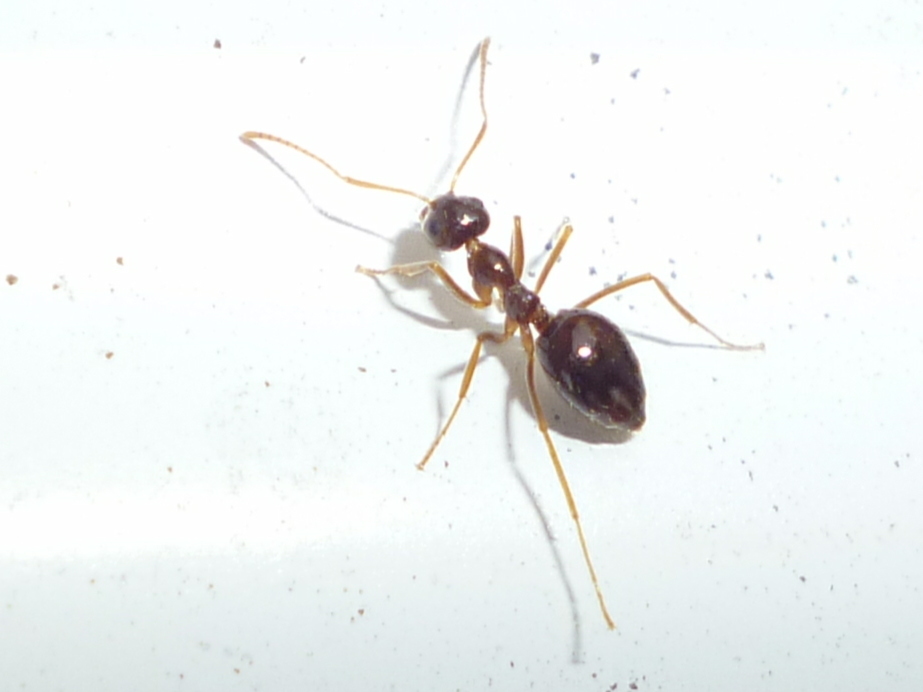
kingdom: Animalia
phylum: Arthropoda
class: Insecta
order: Hymenoptera
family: Formicidae
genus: Prenolepis
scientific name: Prenolepis imparis
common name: Small honey ant
